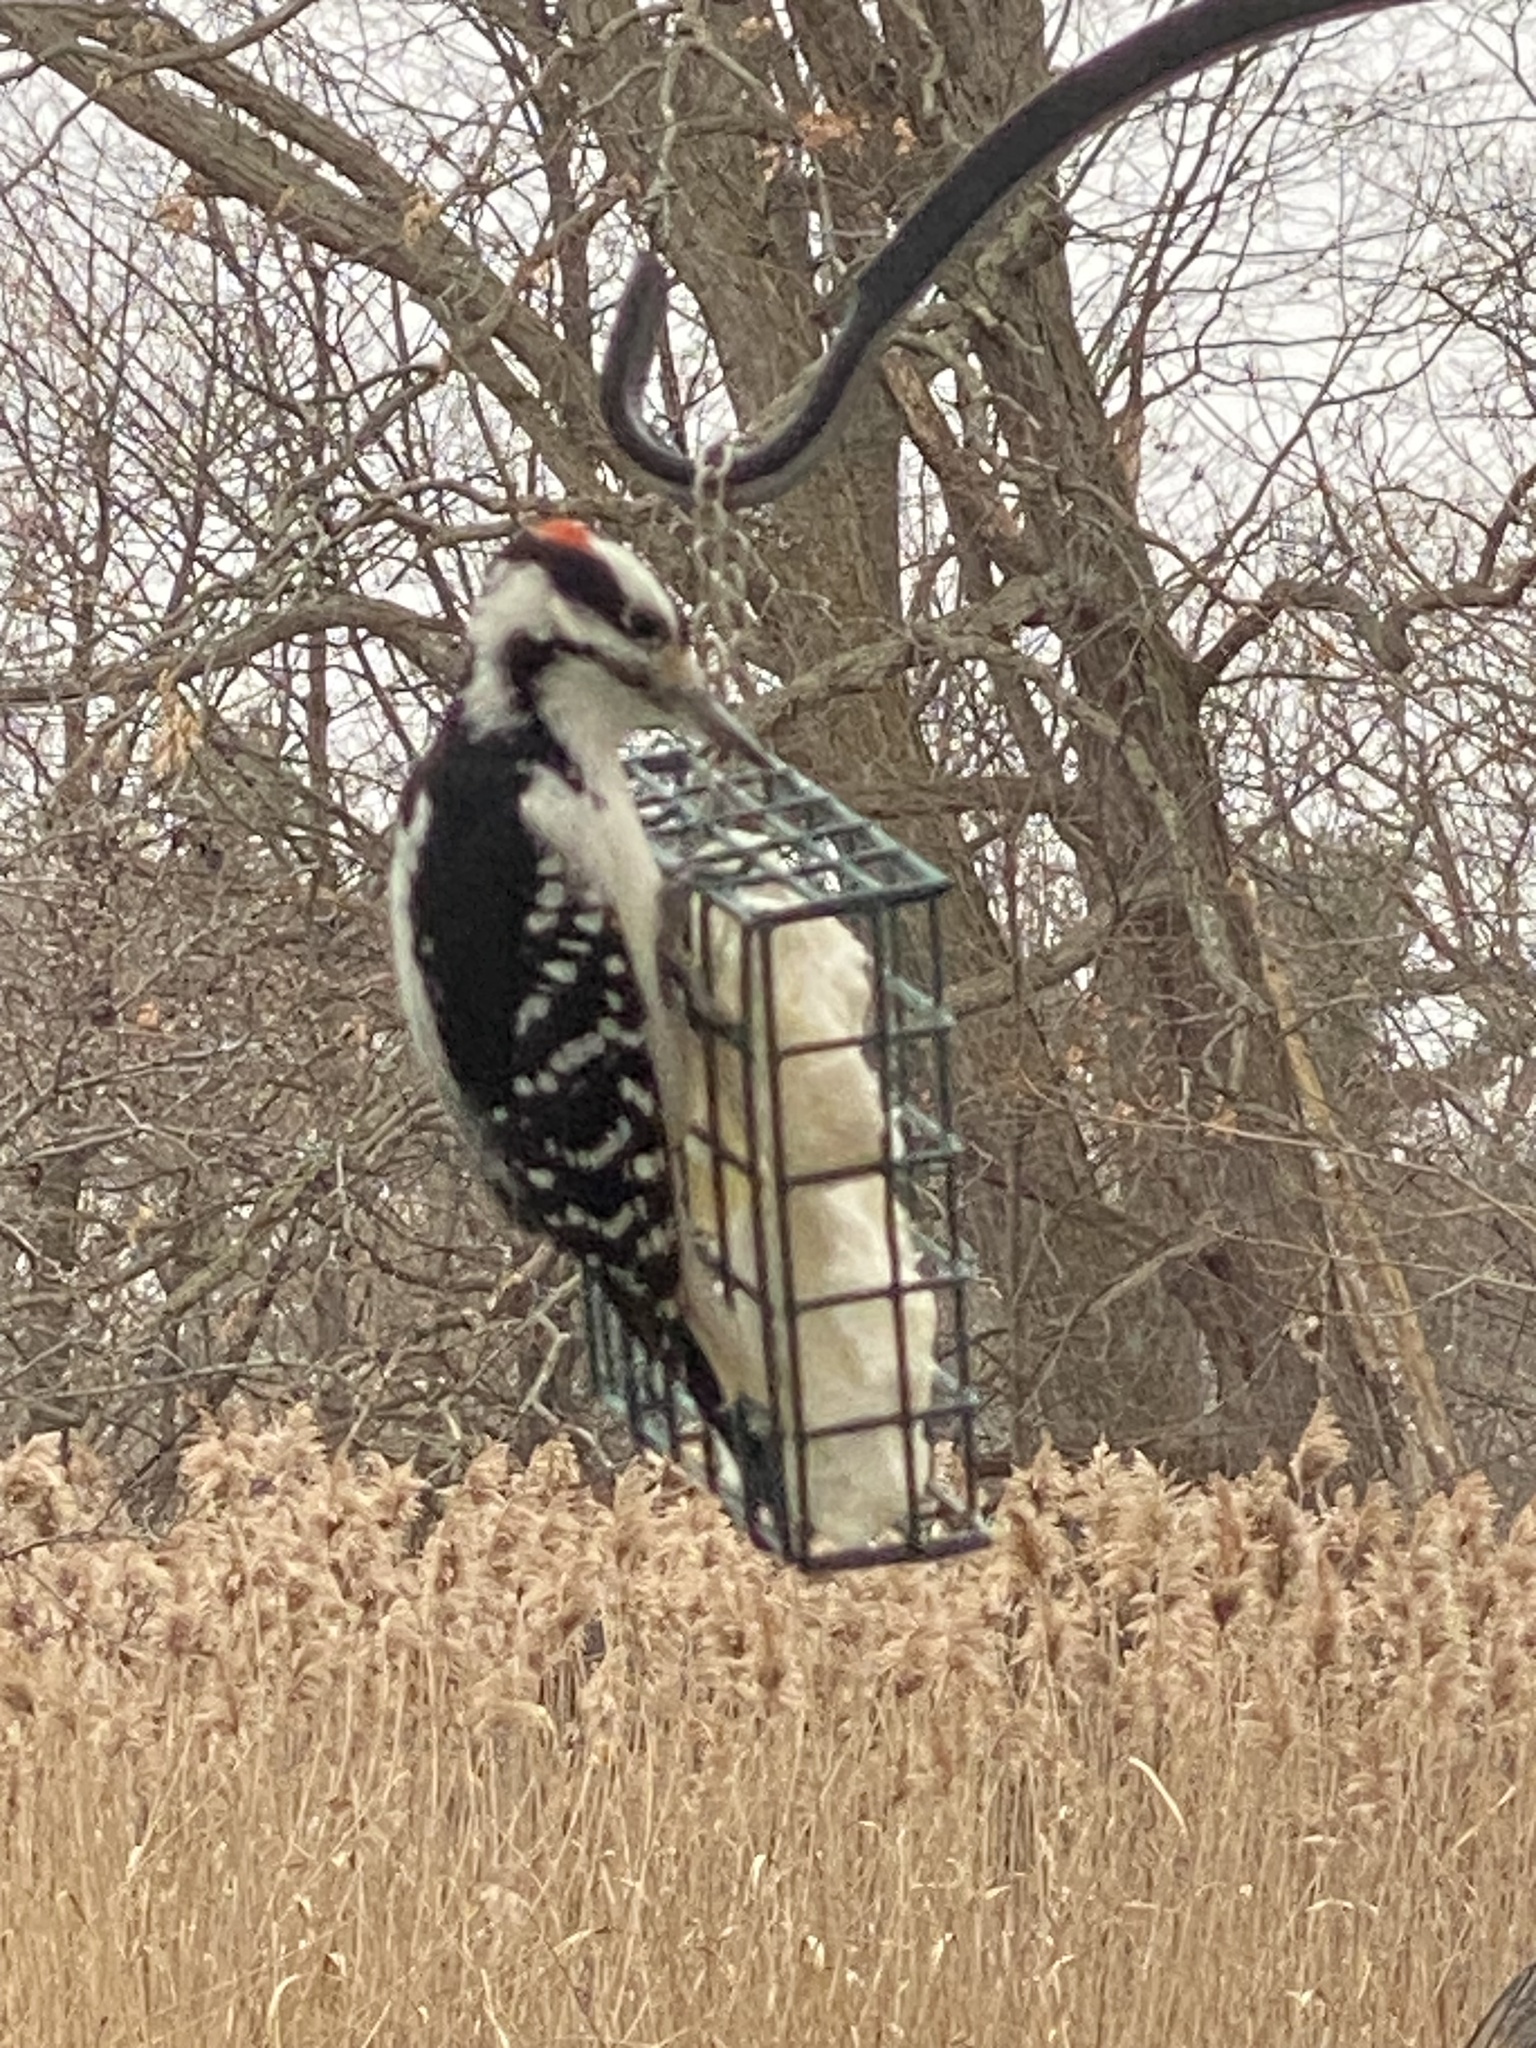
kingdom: Animalia
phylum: Chordata
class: Aves
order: Piciformes
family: Picidae
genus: Leuconotopicus
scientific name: Leuconotopicus villosus
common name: Hairy woodpecker
